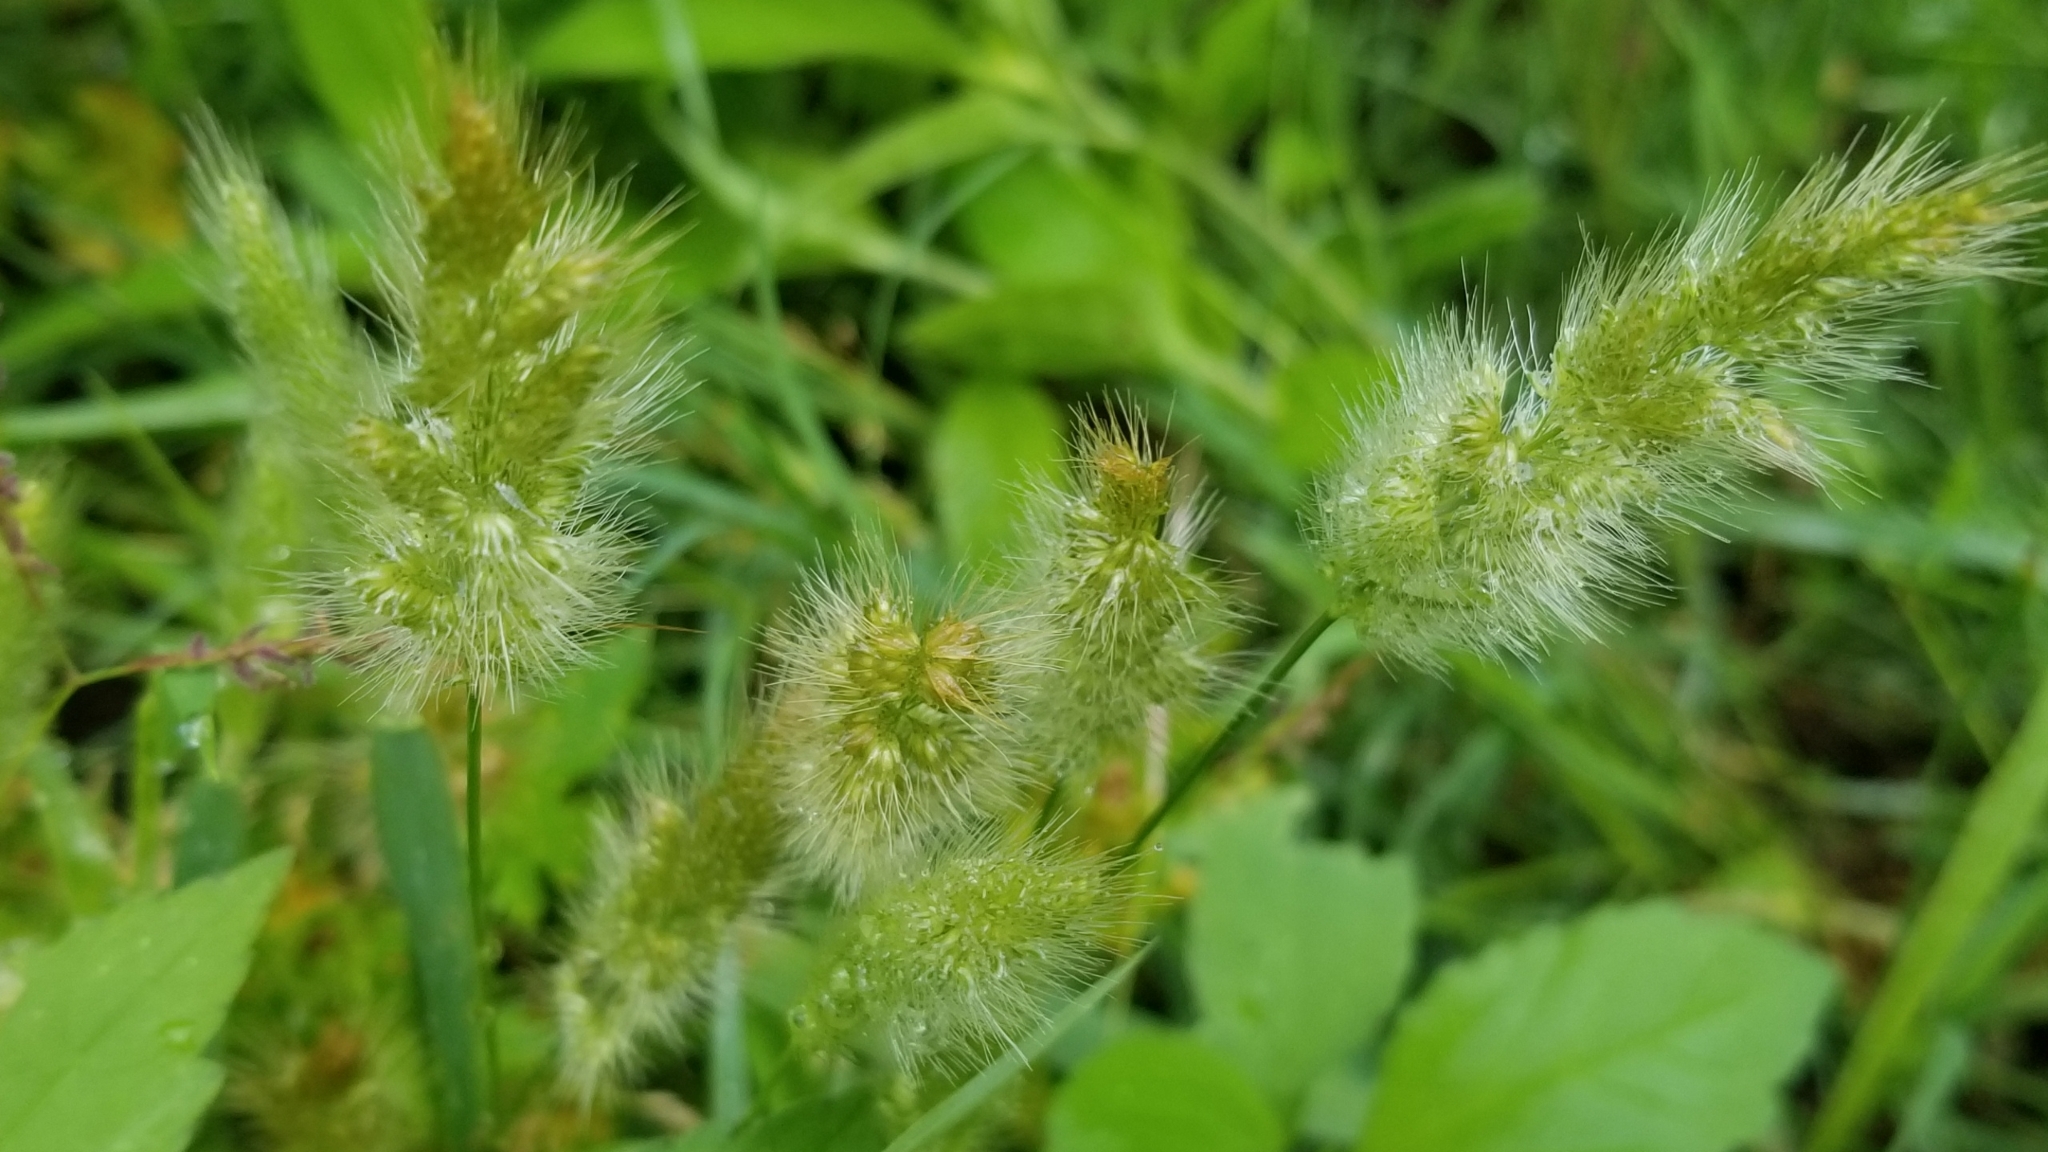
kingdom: Plantae
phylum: Tracheophyta
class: Liliopsida
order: Poales
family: Poaceae
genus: Polypogon
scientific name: Polypogon monspeliensis
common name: Annual rabbitsfoot grass
